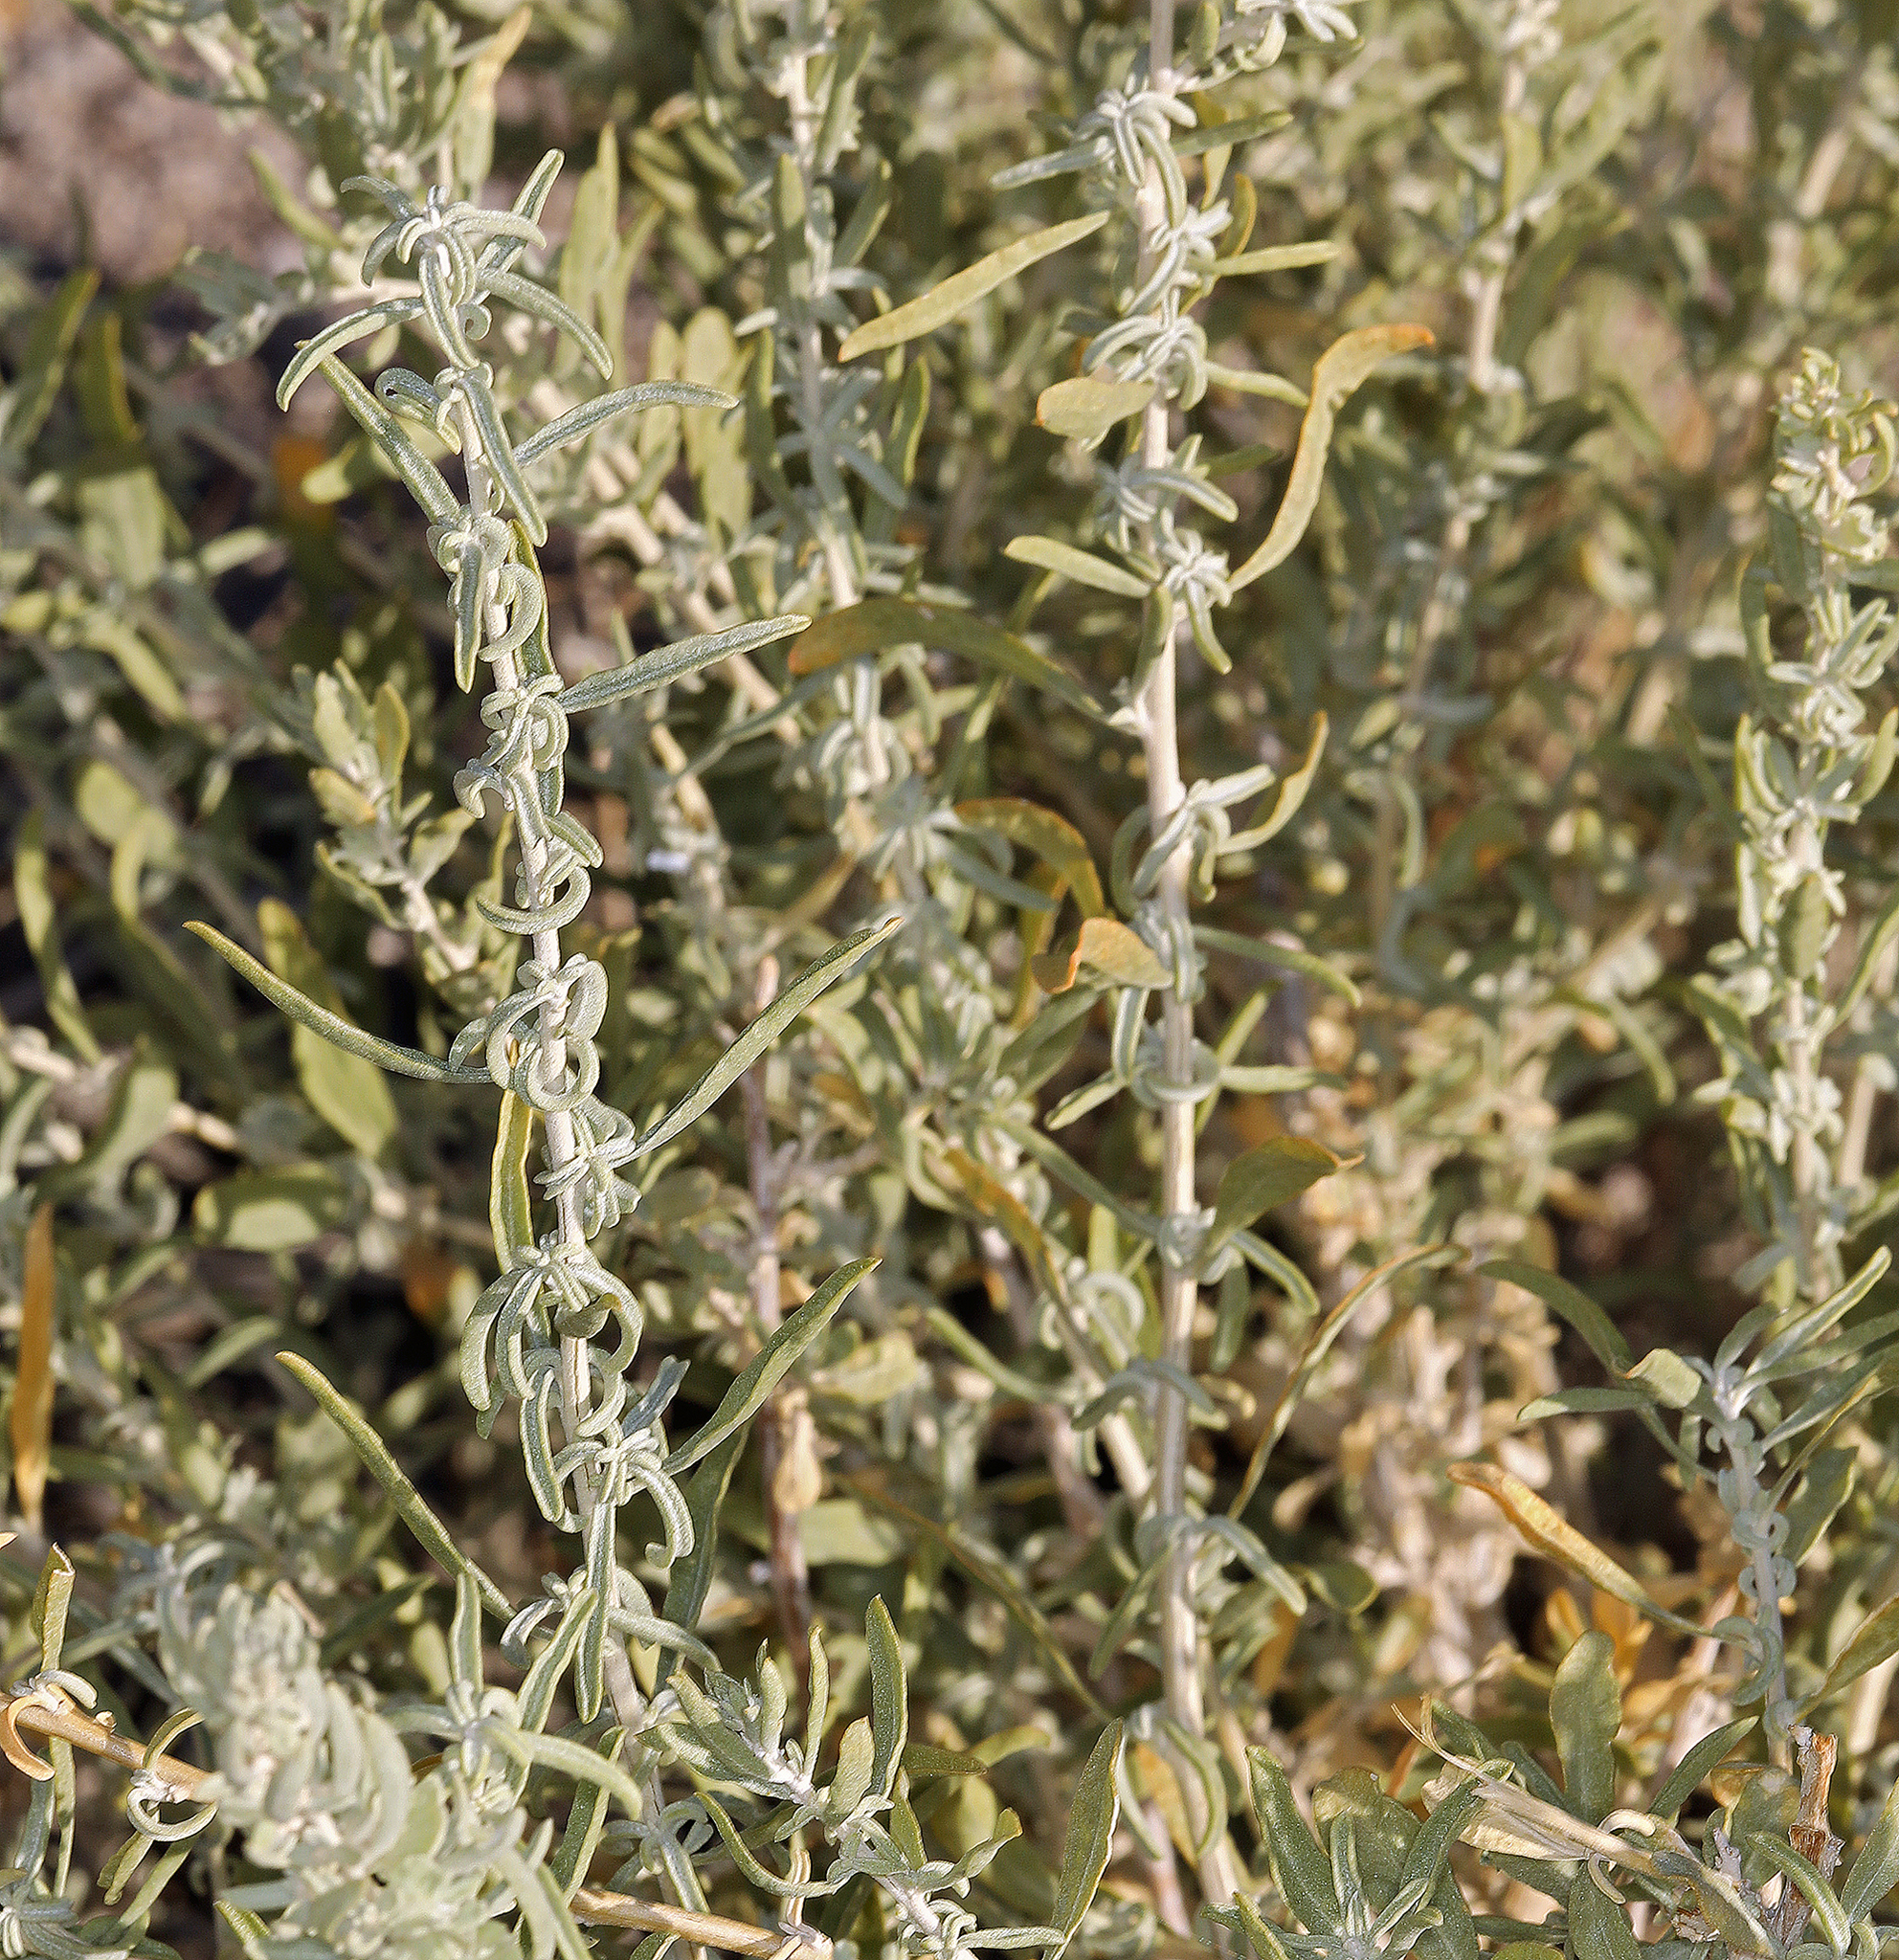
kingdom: Plantae
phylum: Tracheophyta
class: Magnoliopsida
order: Caryophyllales
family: Amaranthaceae
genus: Atriplex
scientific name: Atriplex canescens
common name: Four-wing saltbush
